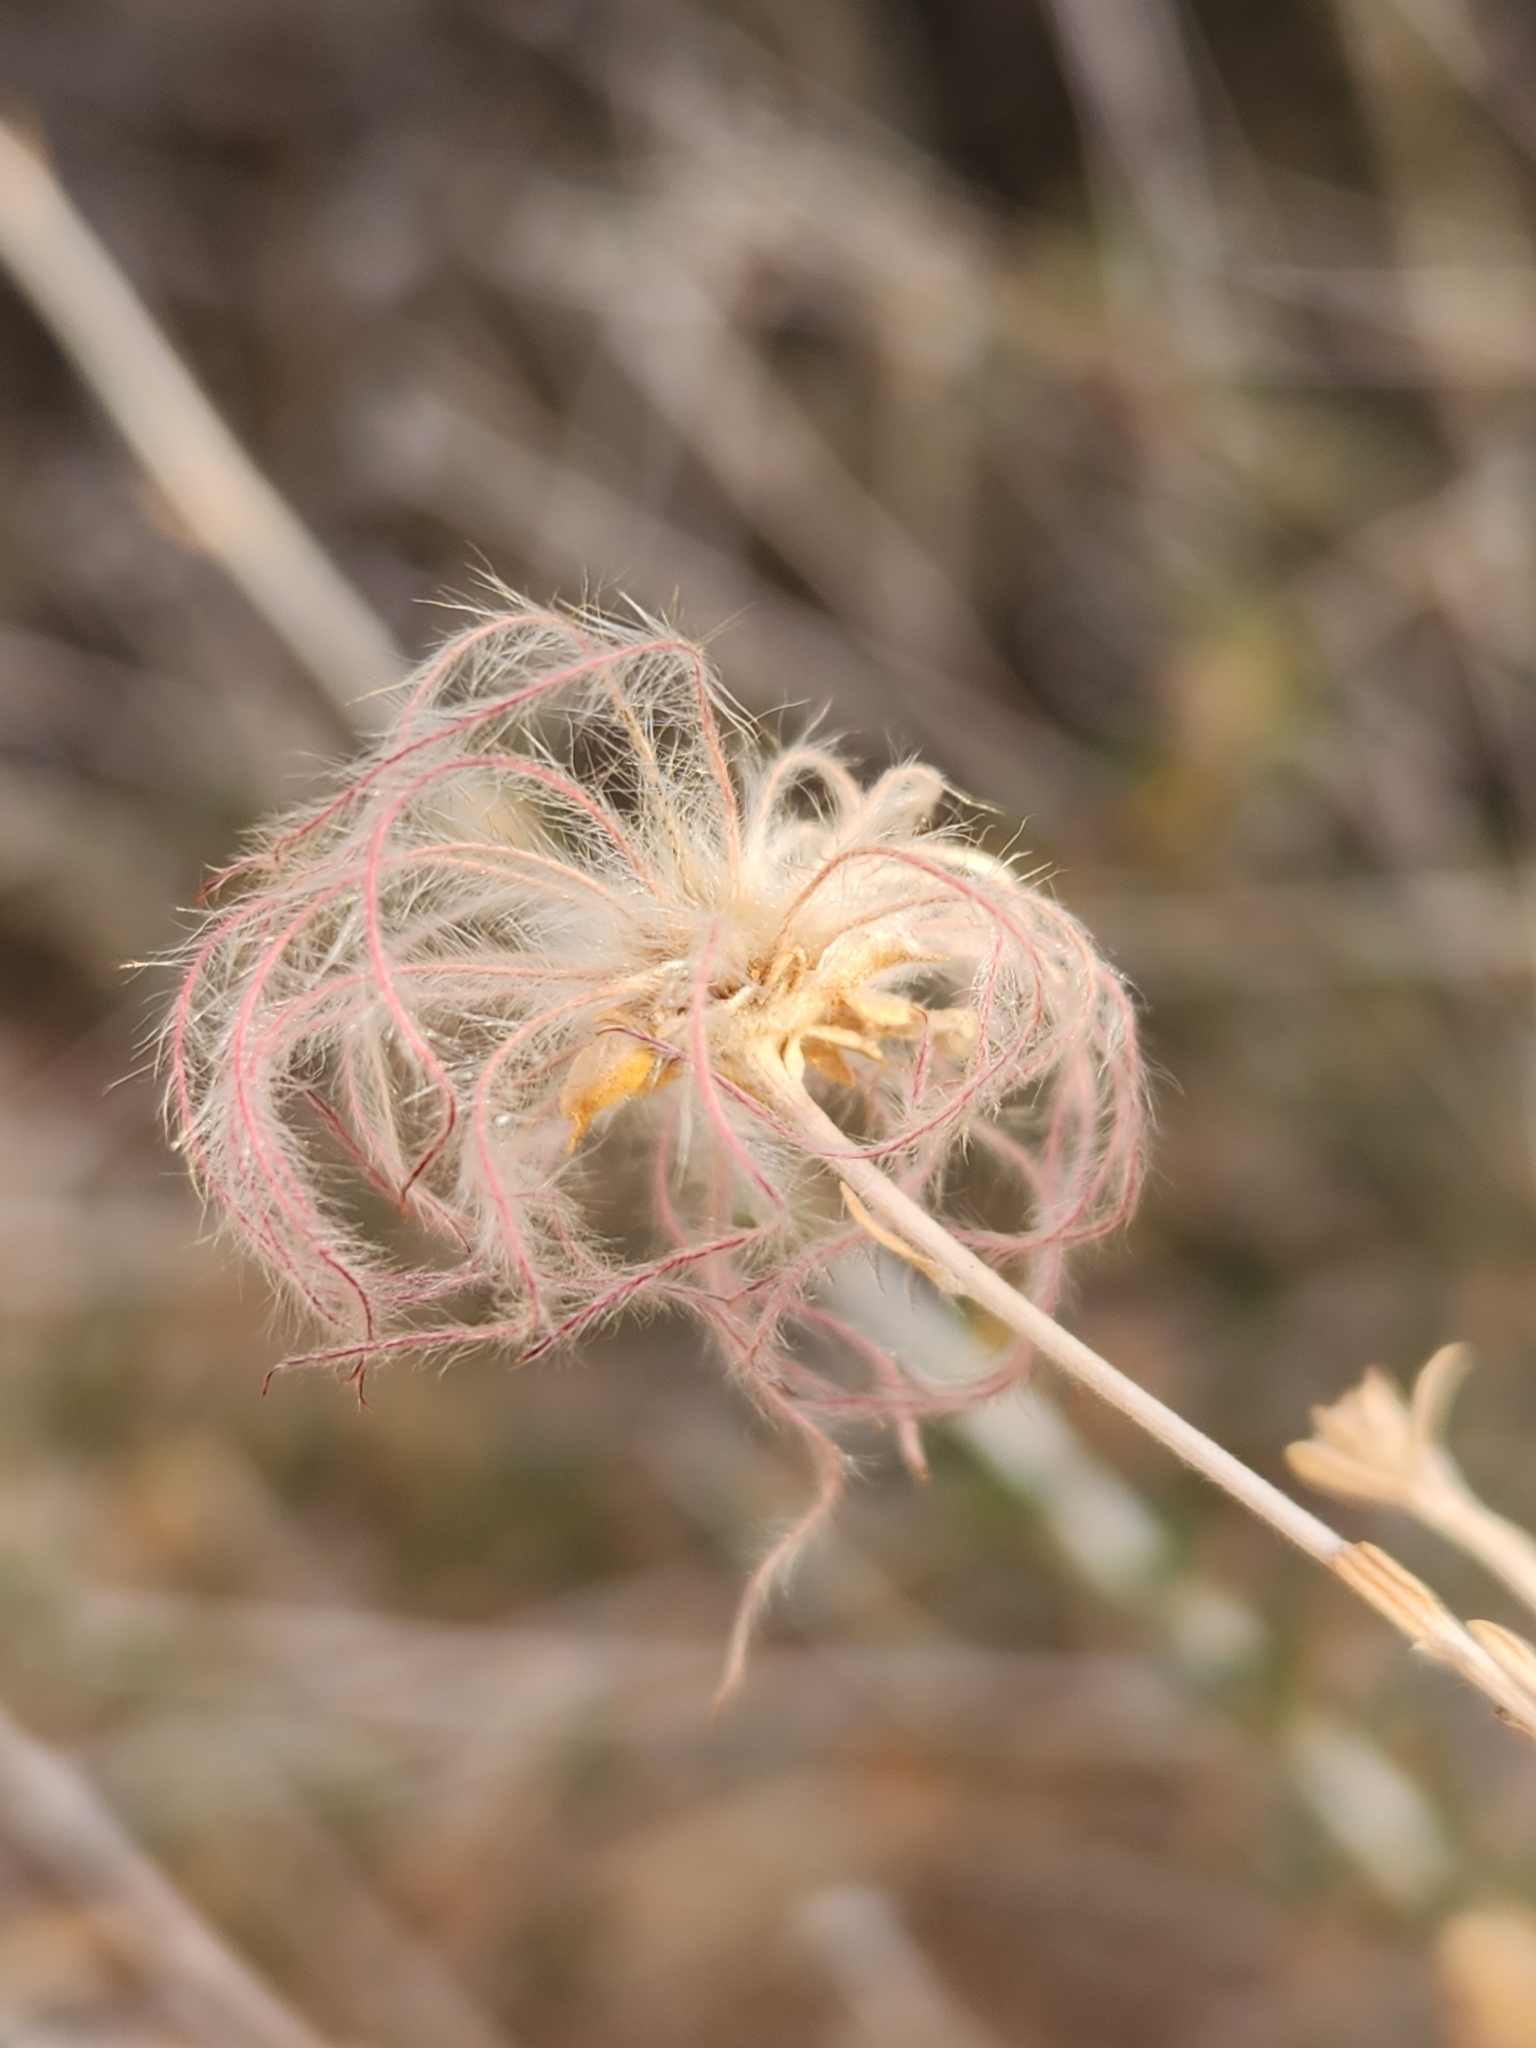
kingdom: Plantae
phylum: Tracheophyta
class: Magnoliopsida
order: Rosales
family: Rosaceae
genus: Fallugia
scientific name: Fallugia paradoxa
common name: Apache-plume
